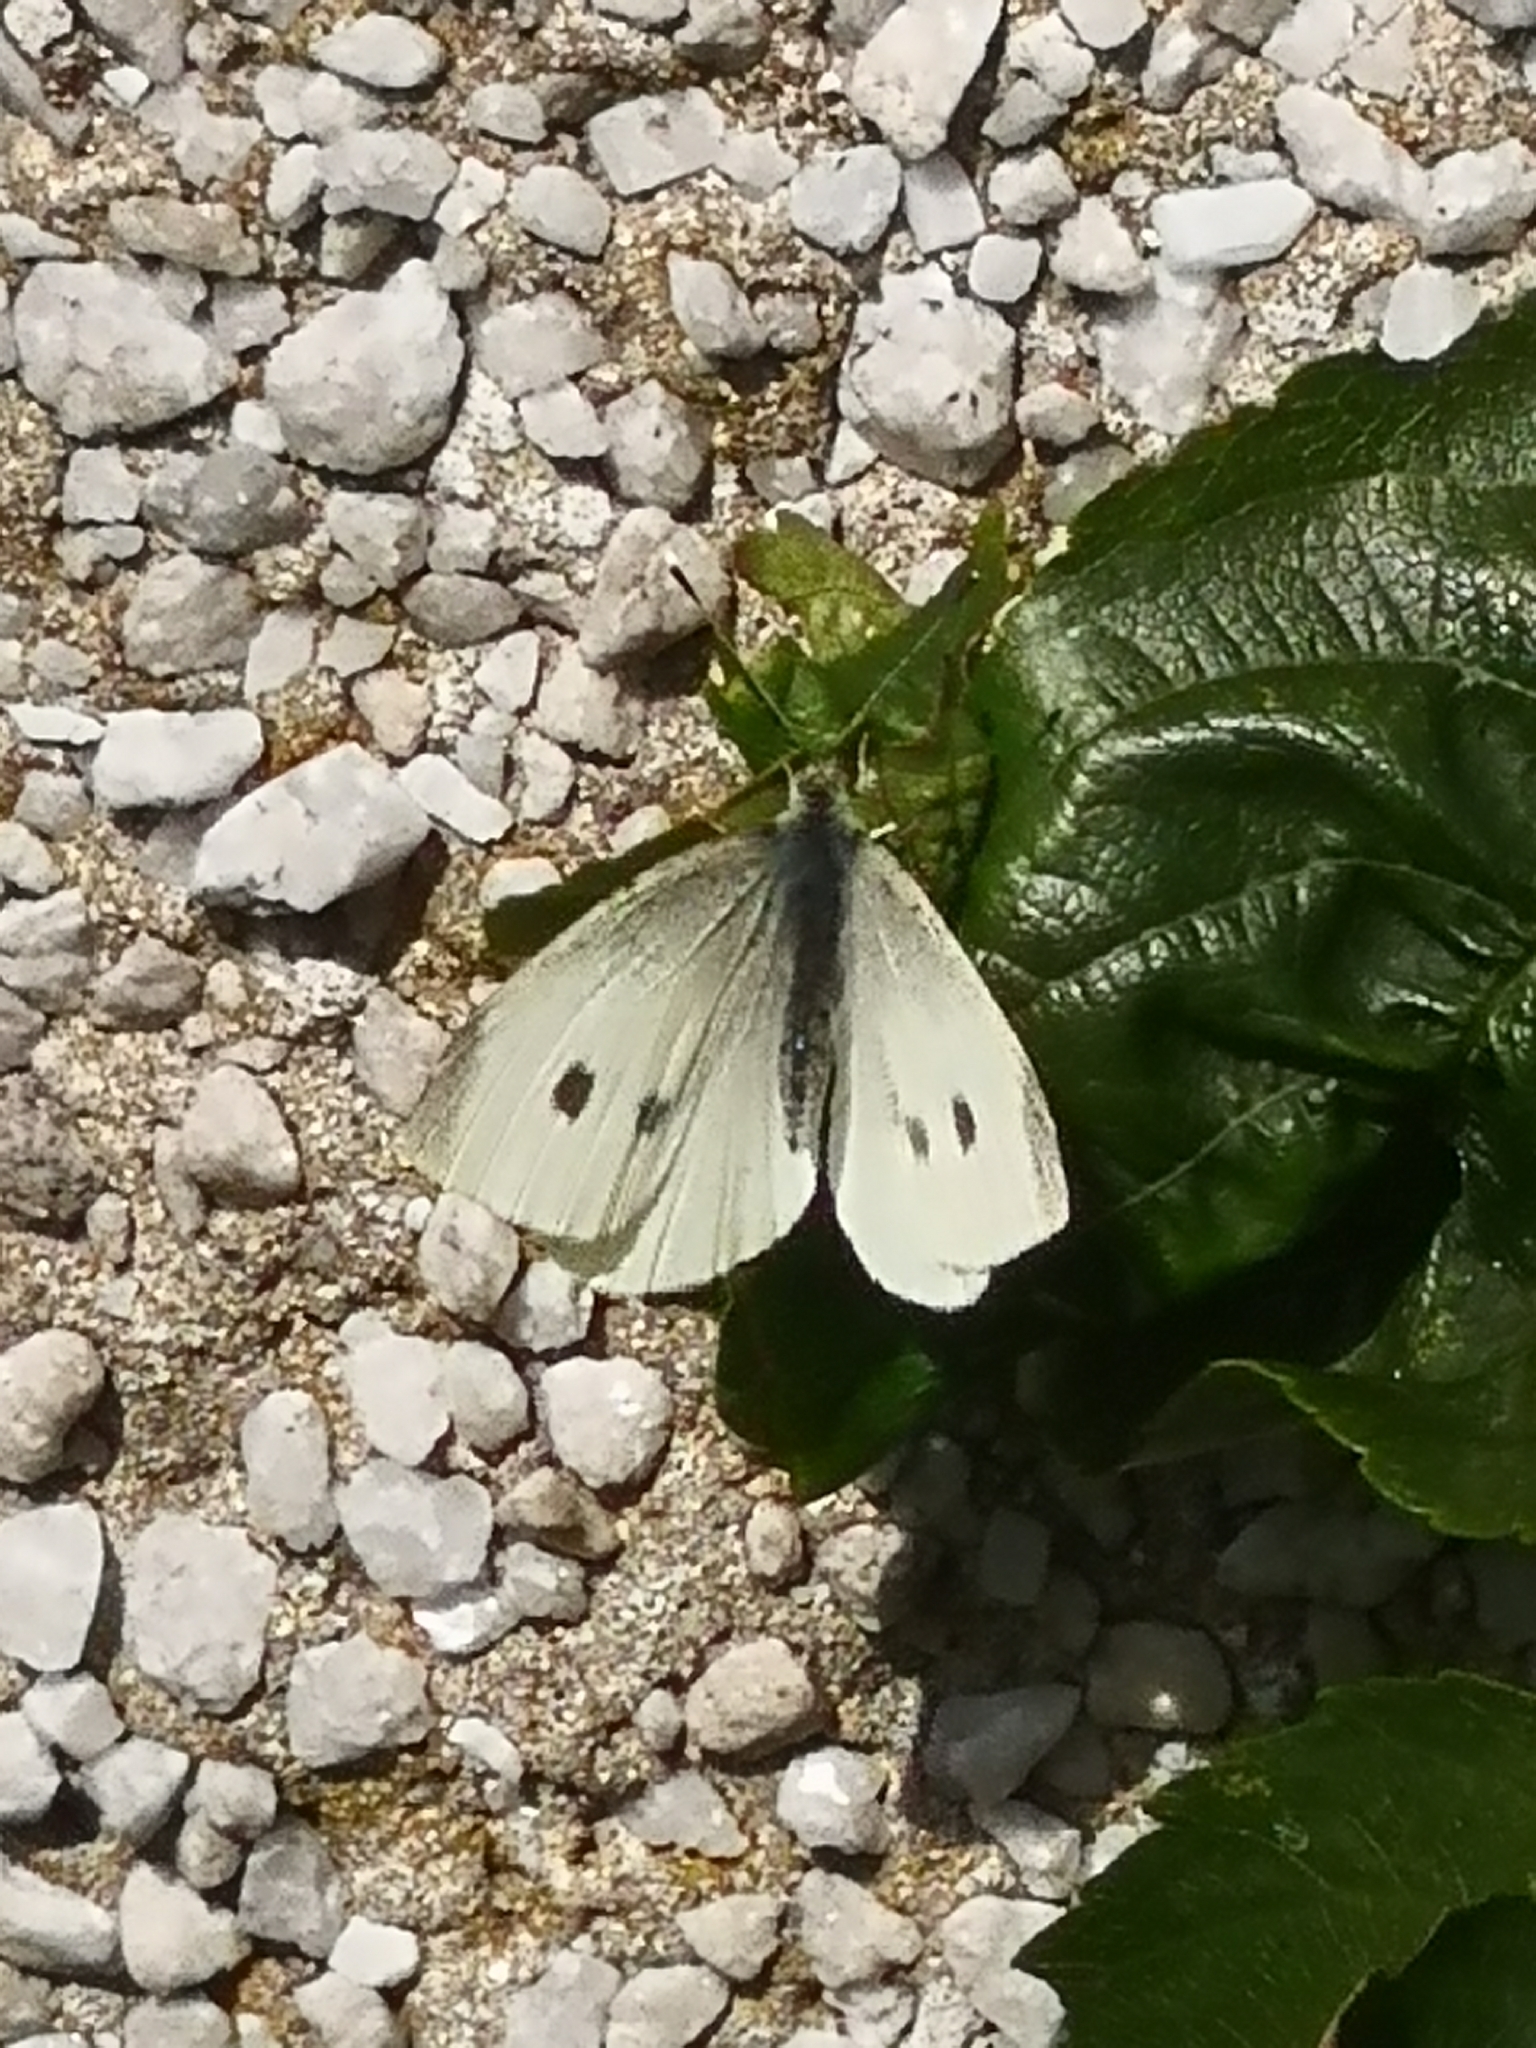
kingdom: Animalia
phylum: Arthropoda
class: Insecta
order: Lepidoptera
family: Pieridae
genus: Pieris
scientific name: Pieris rapae
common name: Small white
